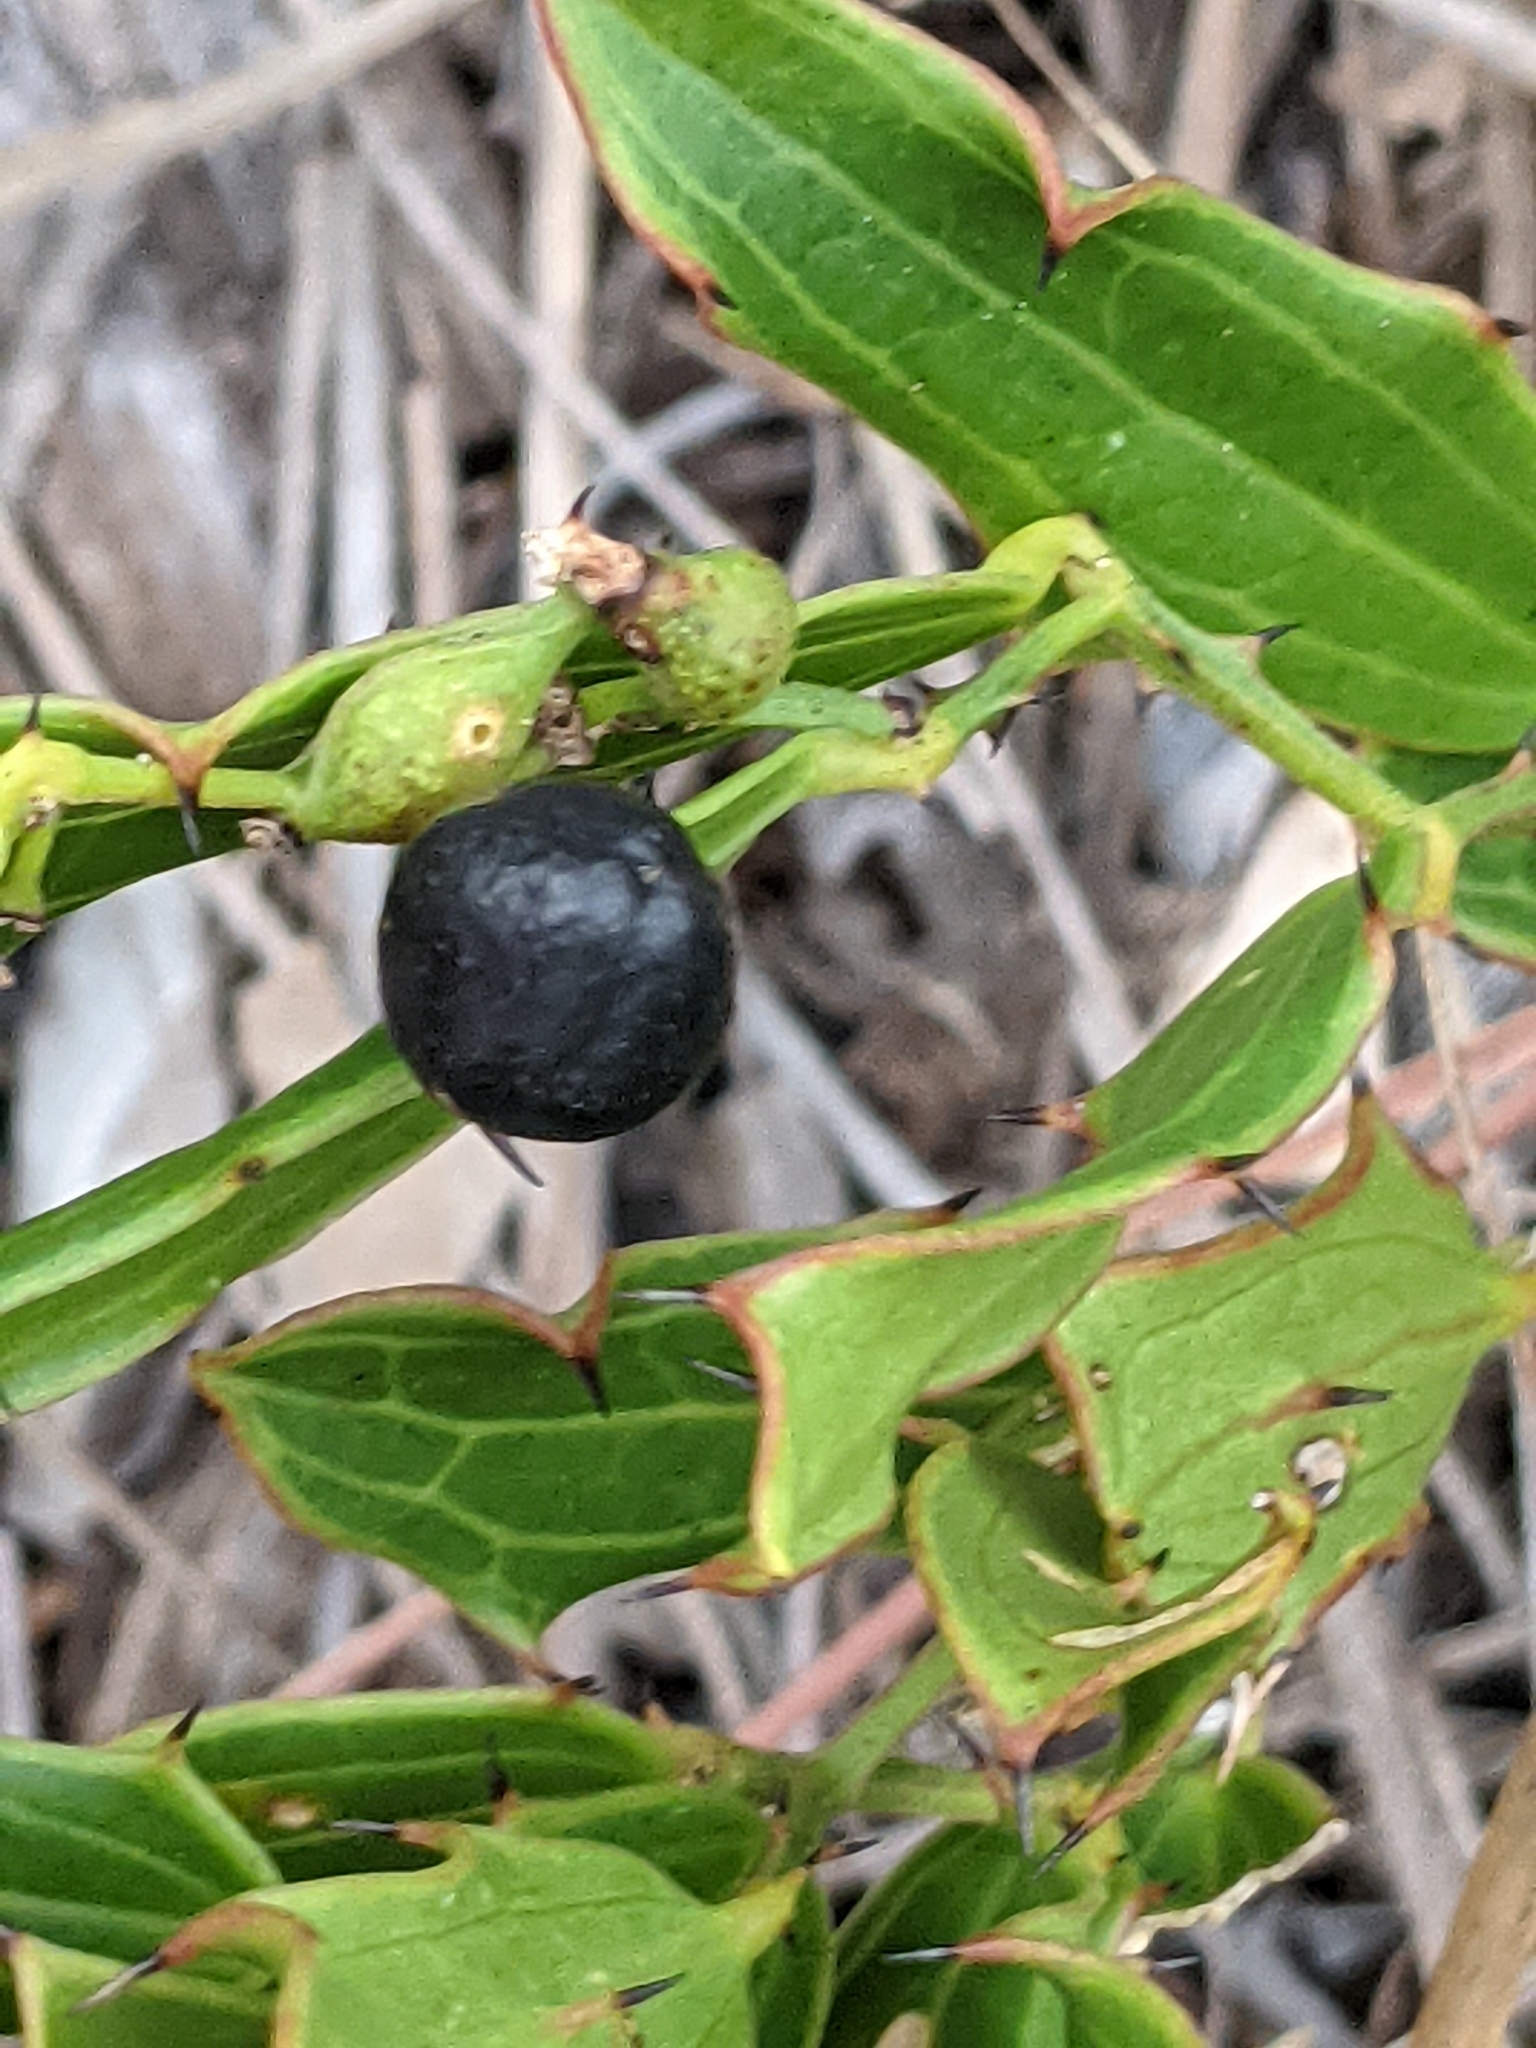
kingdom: Plantae
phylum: Tracheophyta
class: Liliopsida
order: Liliales
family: Smilacaceae
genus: Smilax
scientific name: Smilax havanensis
